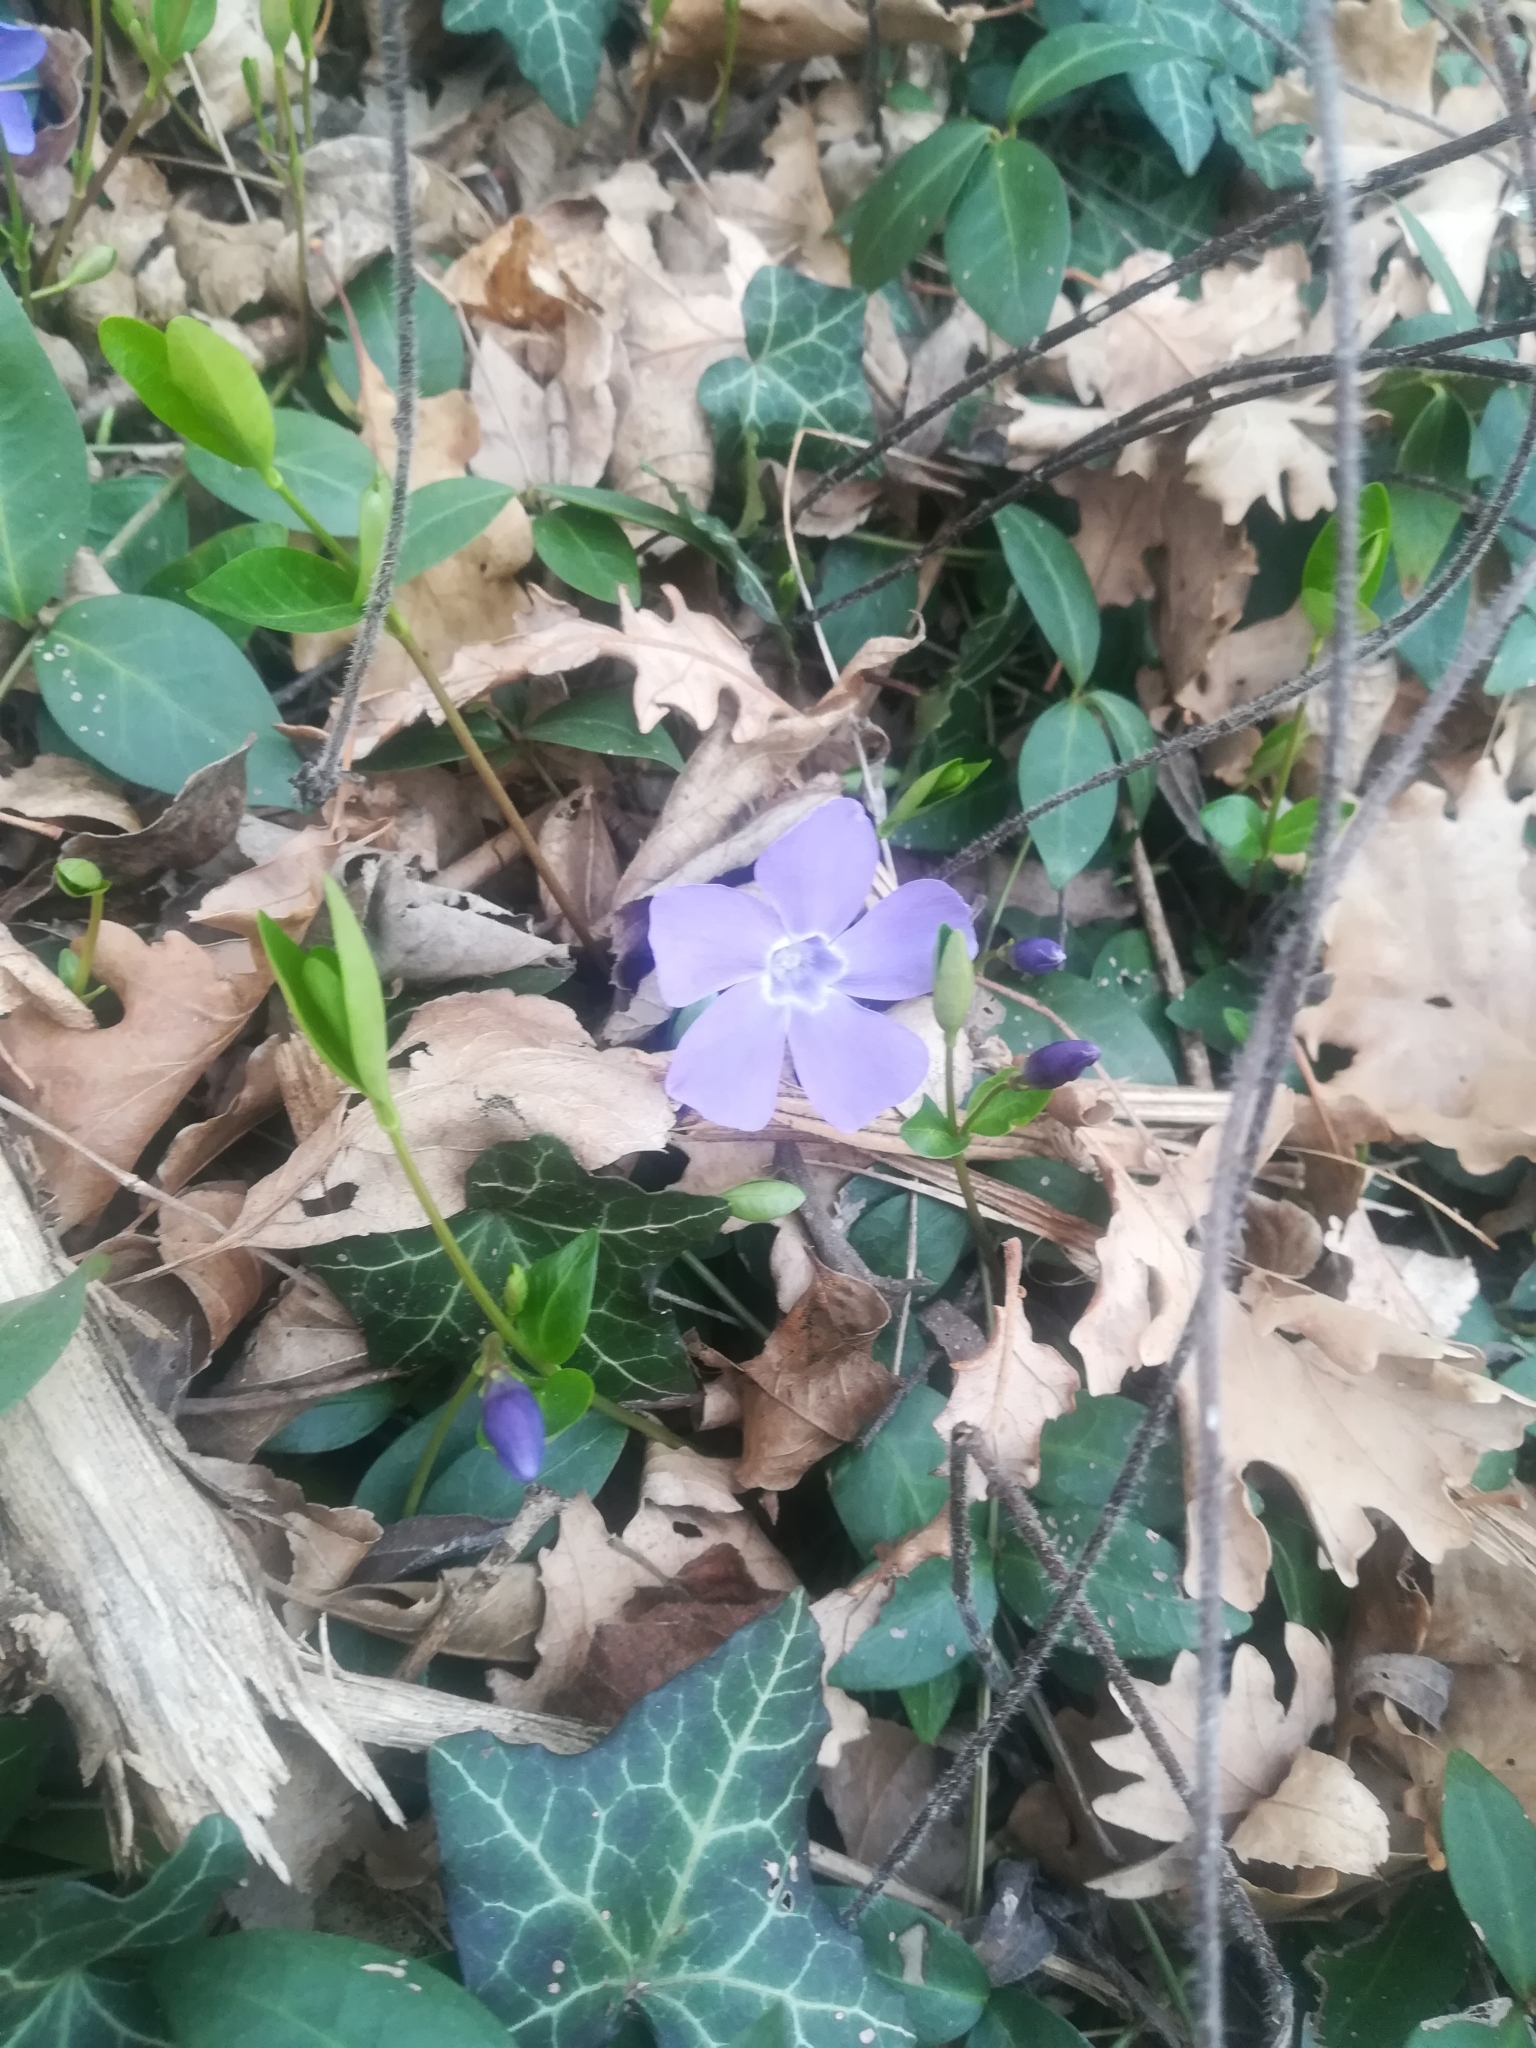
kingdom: Plantae
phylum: Tracheophyta
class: Magnoliopsida
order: Gentianales
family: Apocynaceae
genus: Vinca
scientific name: Vinca minor
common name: Lesser periwinkle
